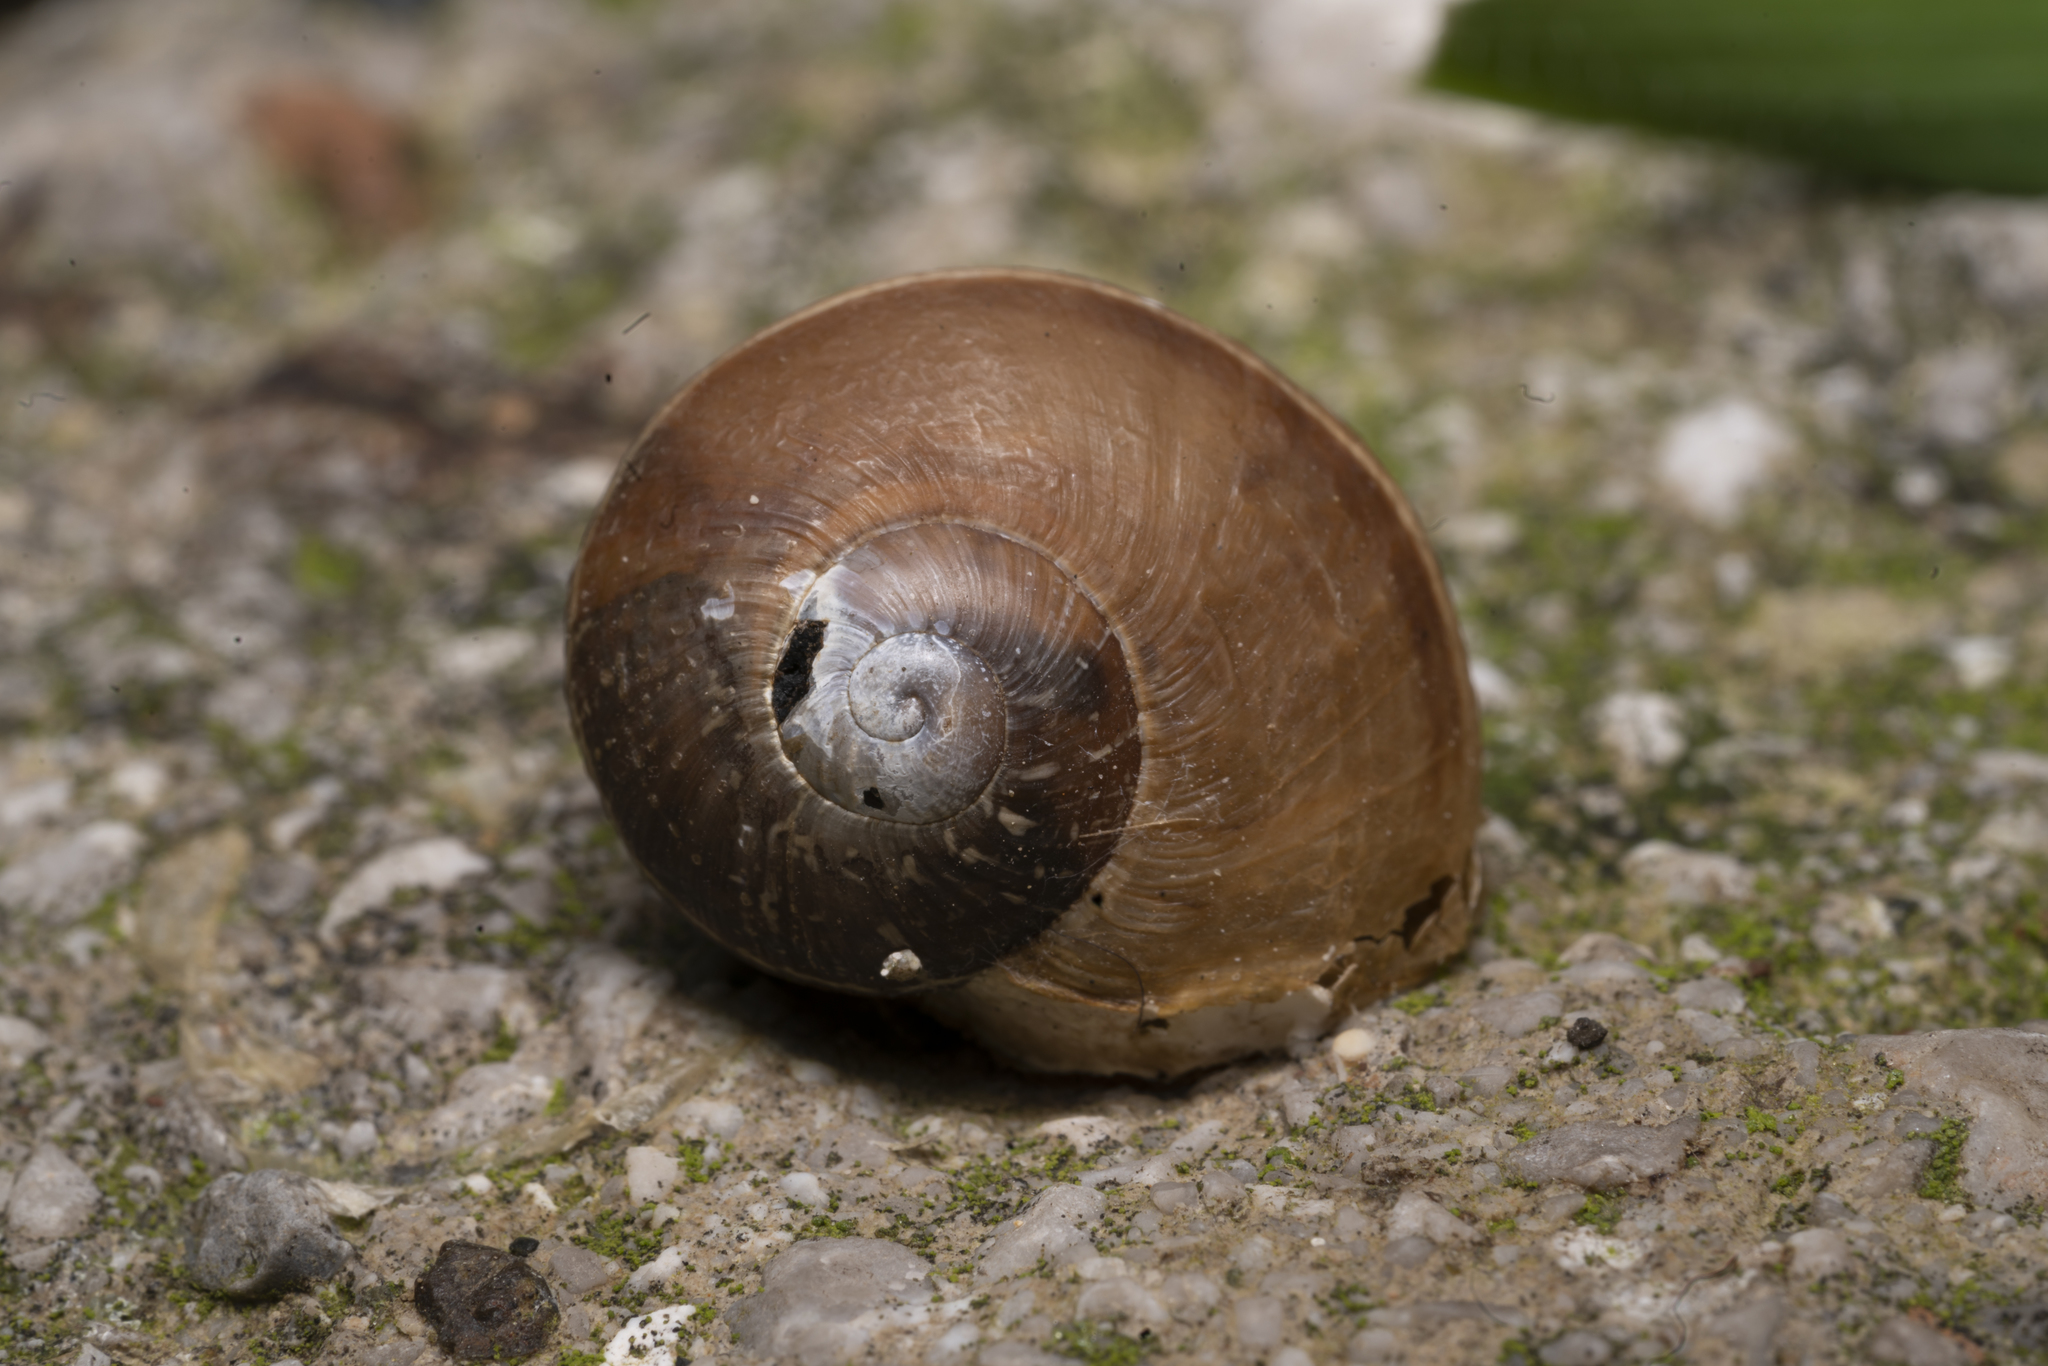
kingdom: Animalia
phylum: Mollusca
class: Gastropoda
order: Stylommatophora
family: Helicidae
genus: Cornu
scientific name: Cornu aspersum
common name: Brown garden snail
